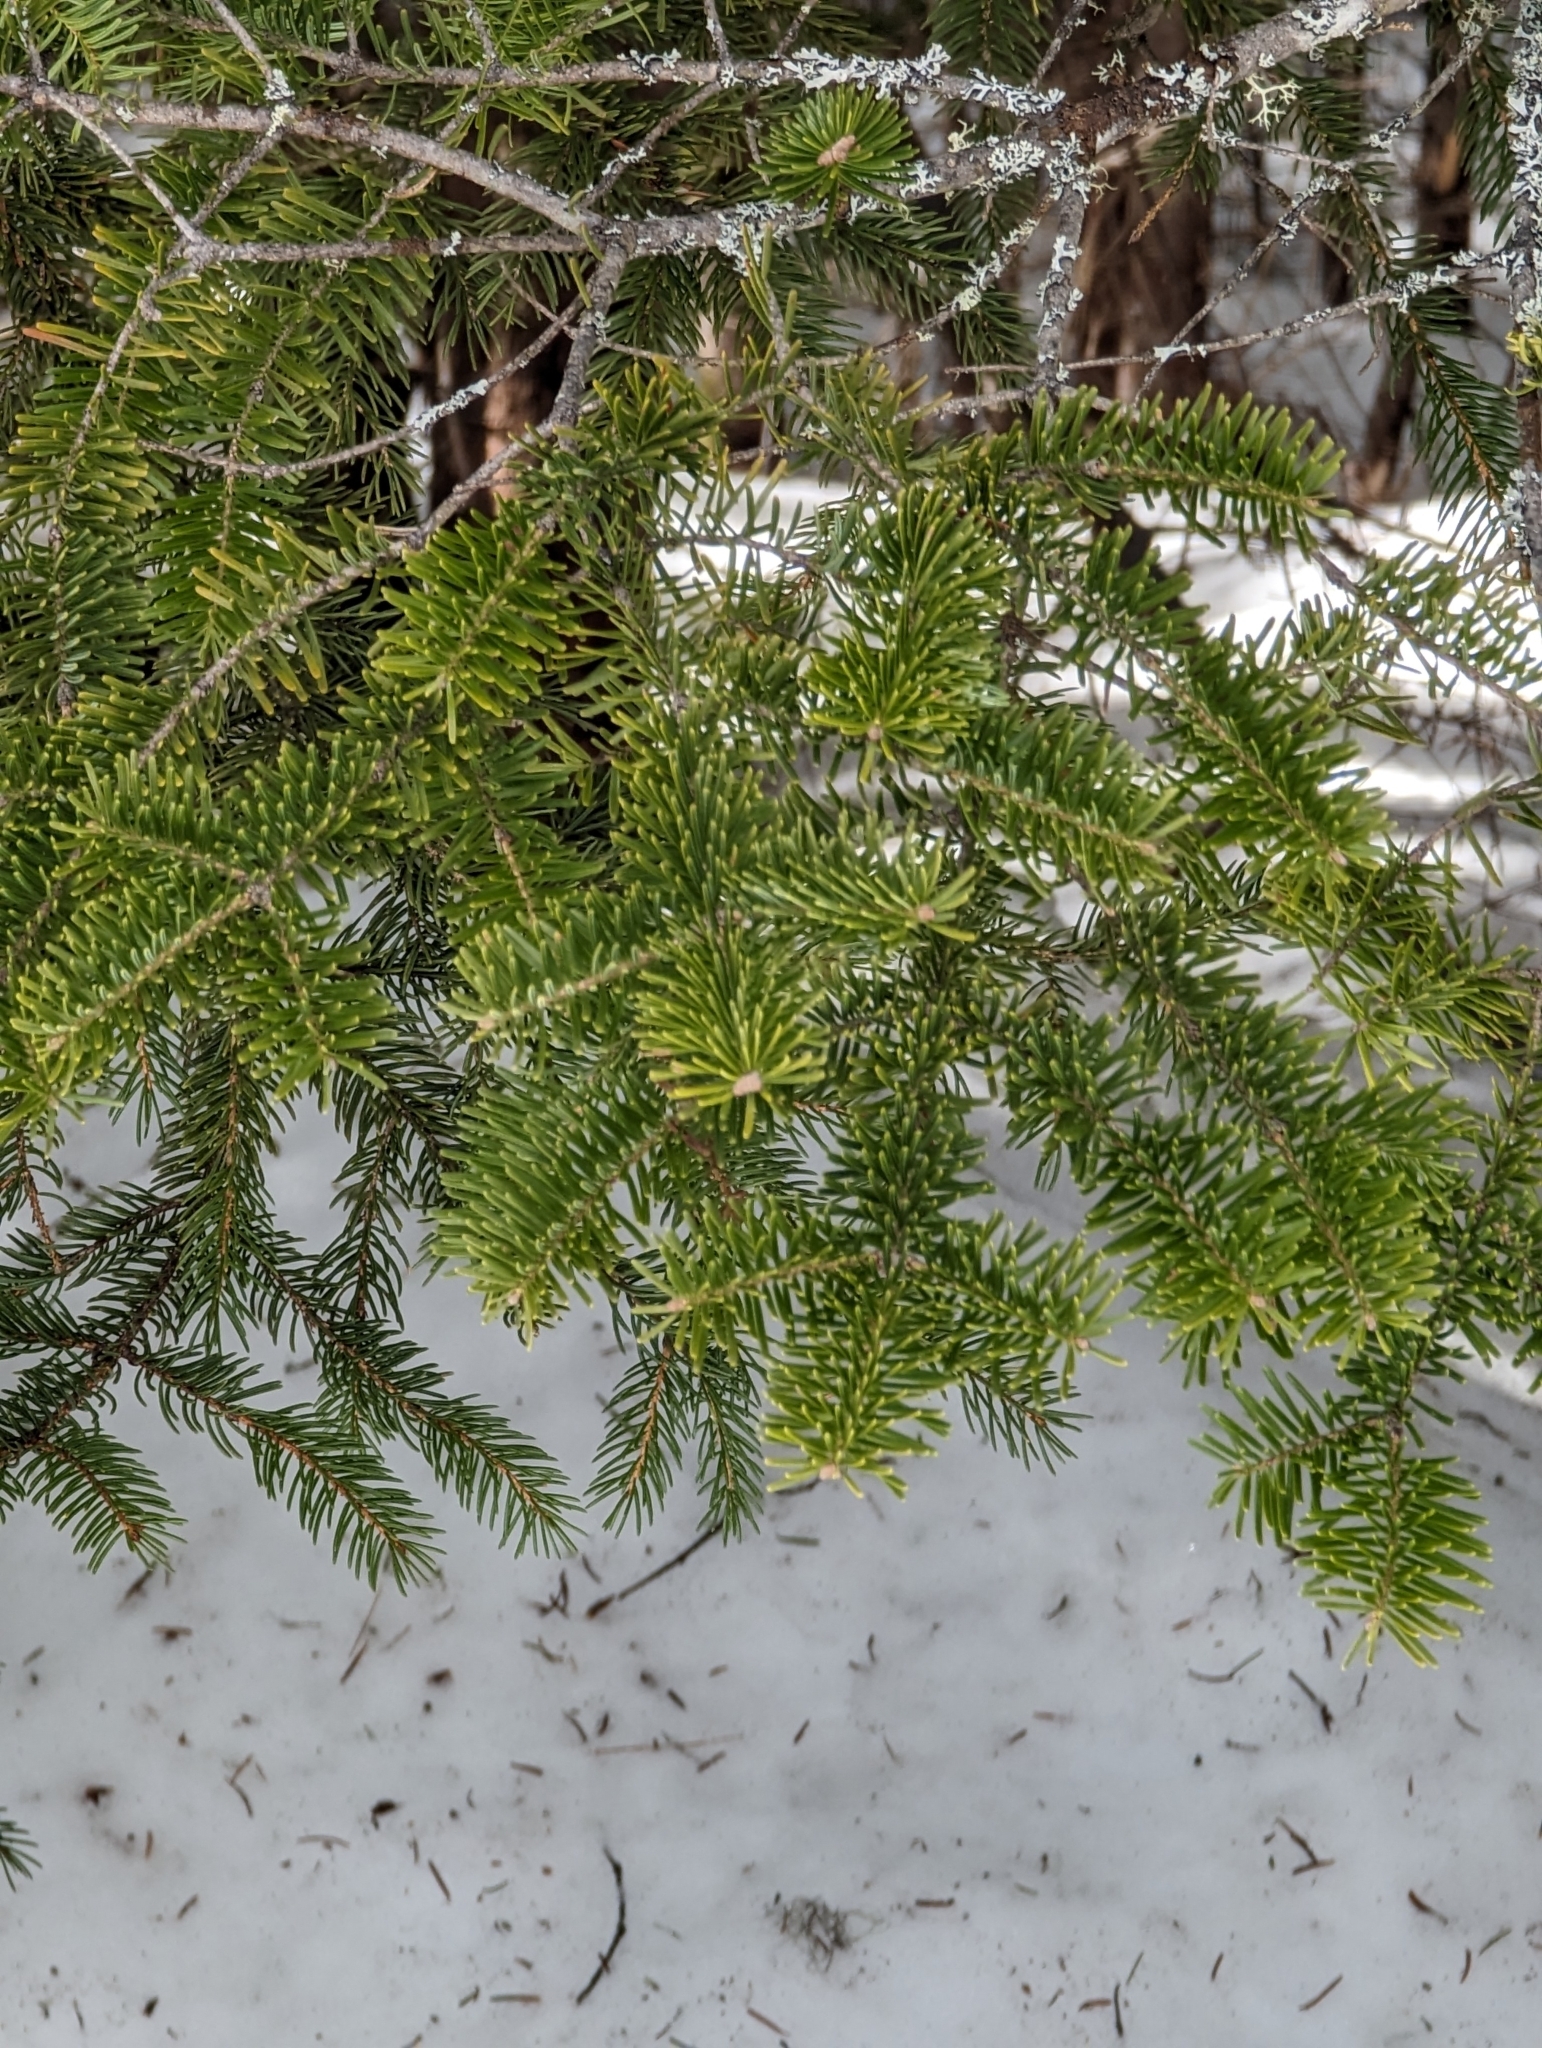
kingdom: Plantae
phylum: Tracheophyta
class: Pinopsida
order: Pinales
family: Pinaceae
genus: Abies
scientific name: Abies balsamea
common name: Balsam fir
